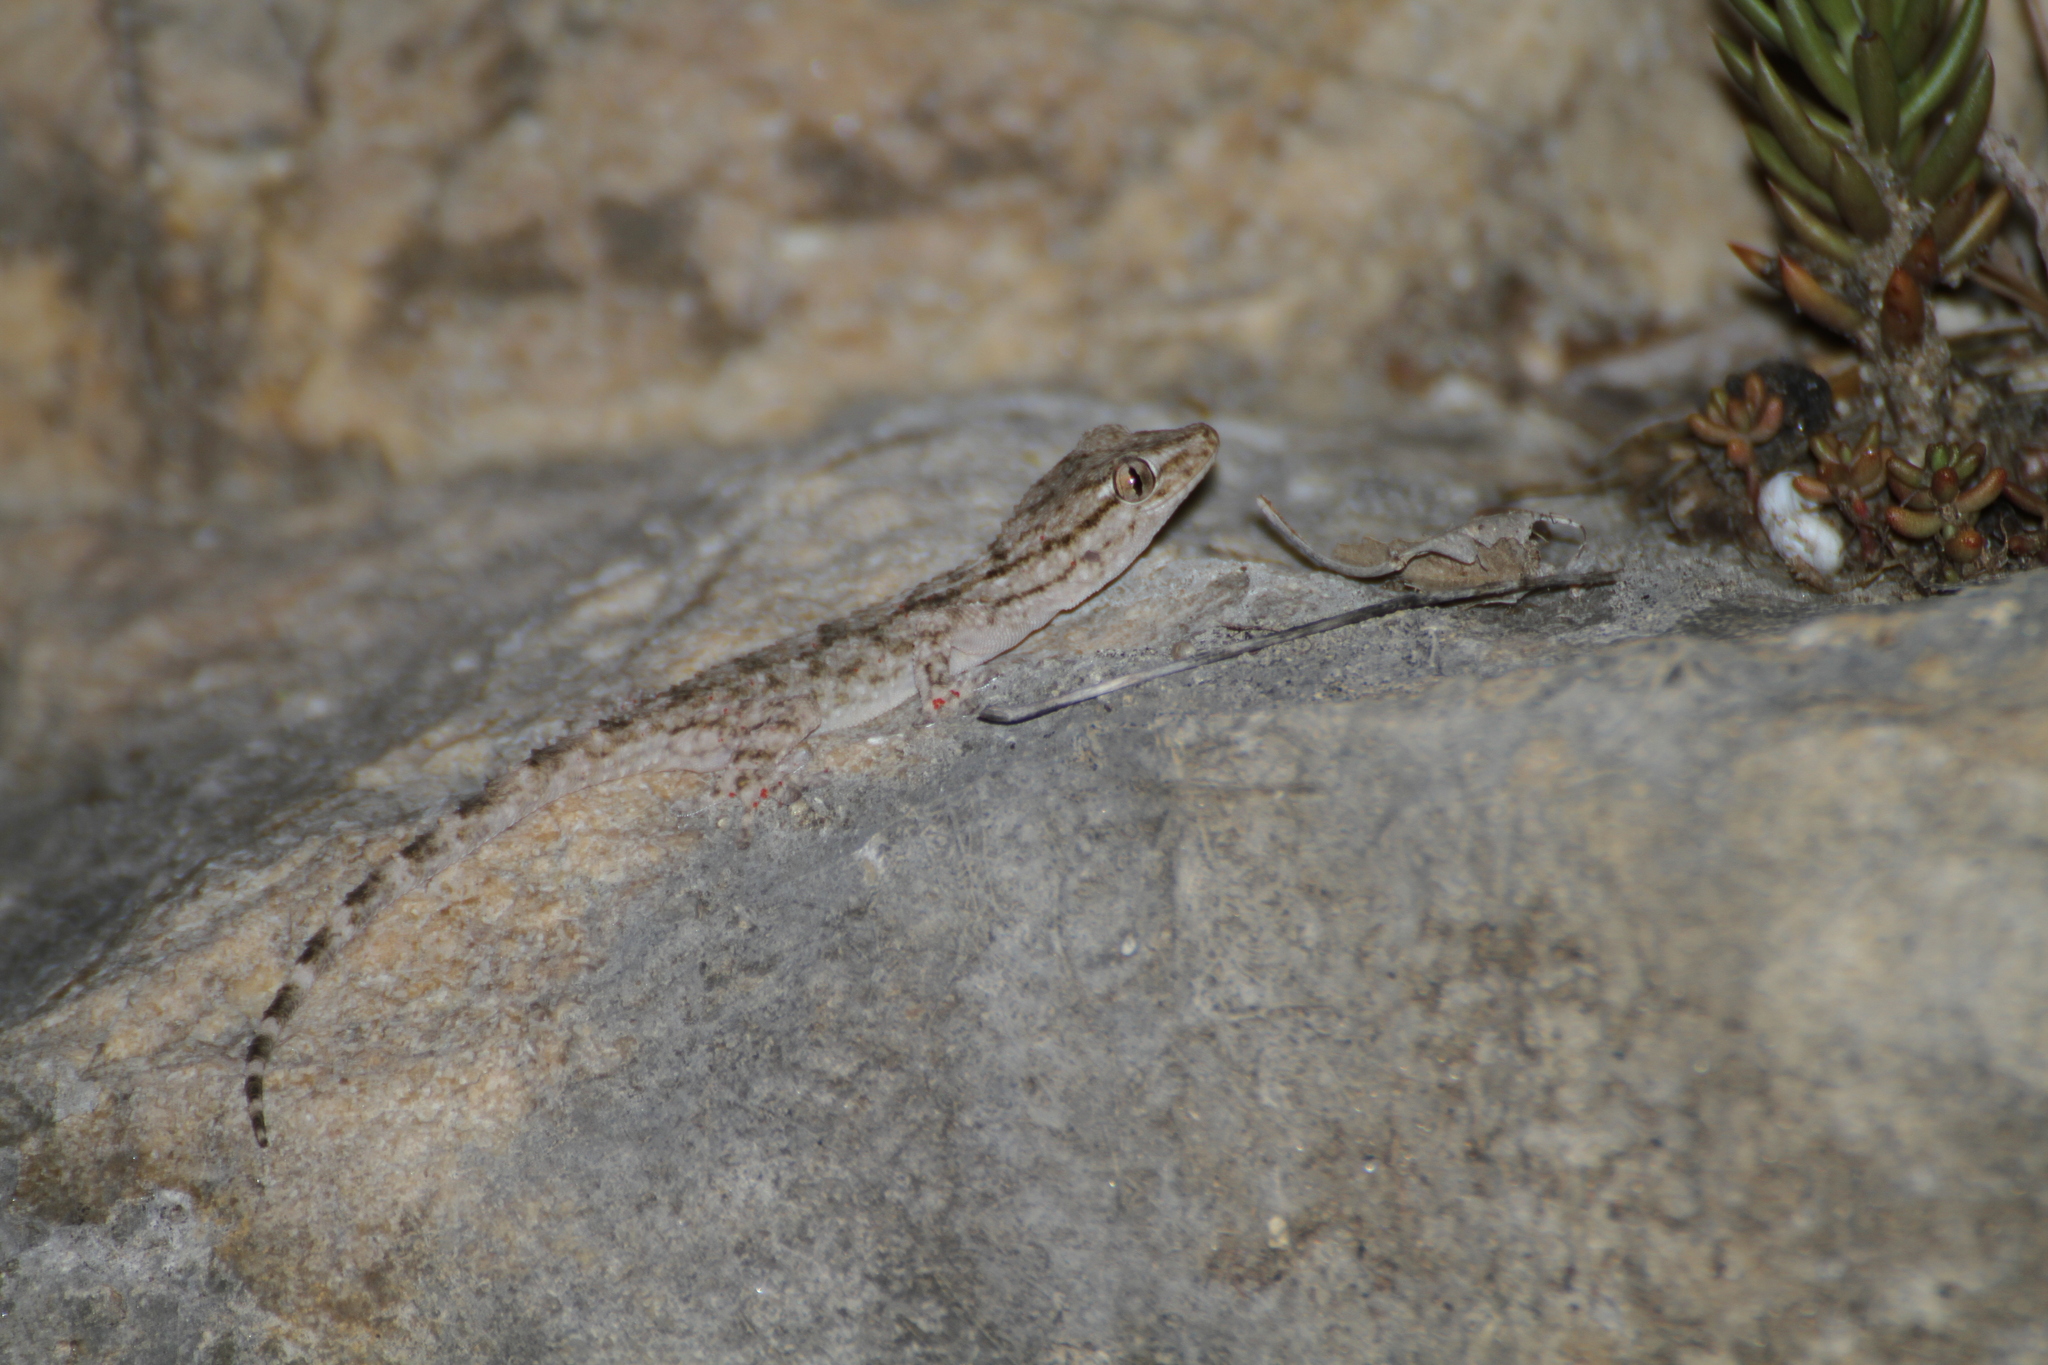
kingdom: Animalia
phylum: Chordata
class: Squamata
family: Phyllodactylidae
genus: Tarentola
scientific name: Tarentola mauritanica
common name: Moorish gecko
